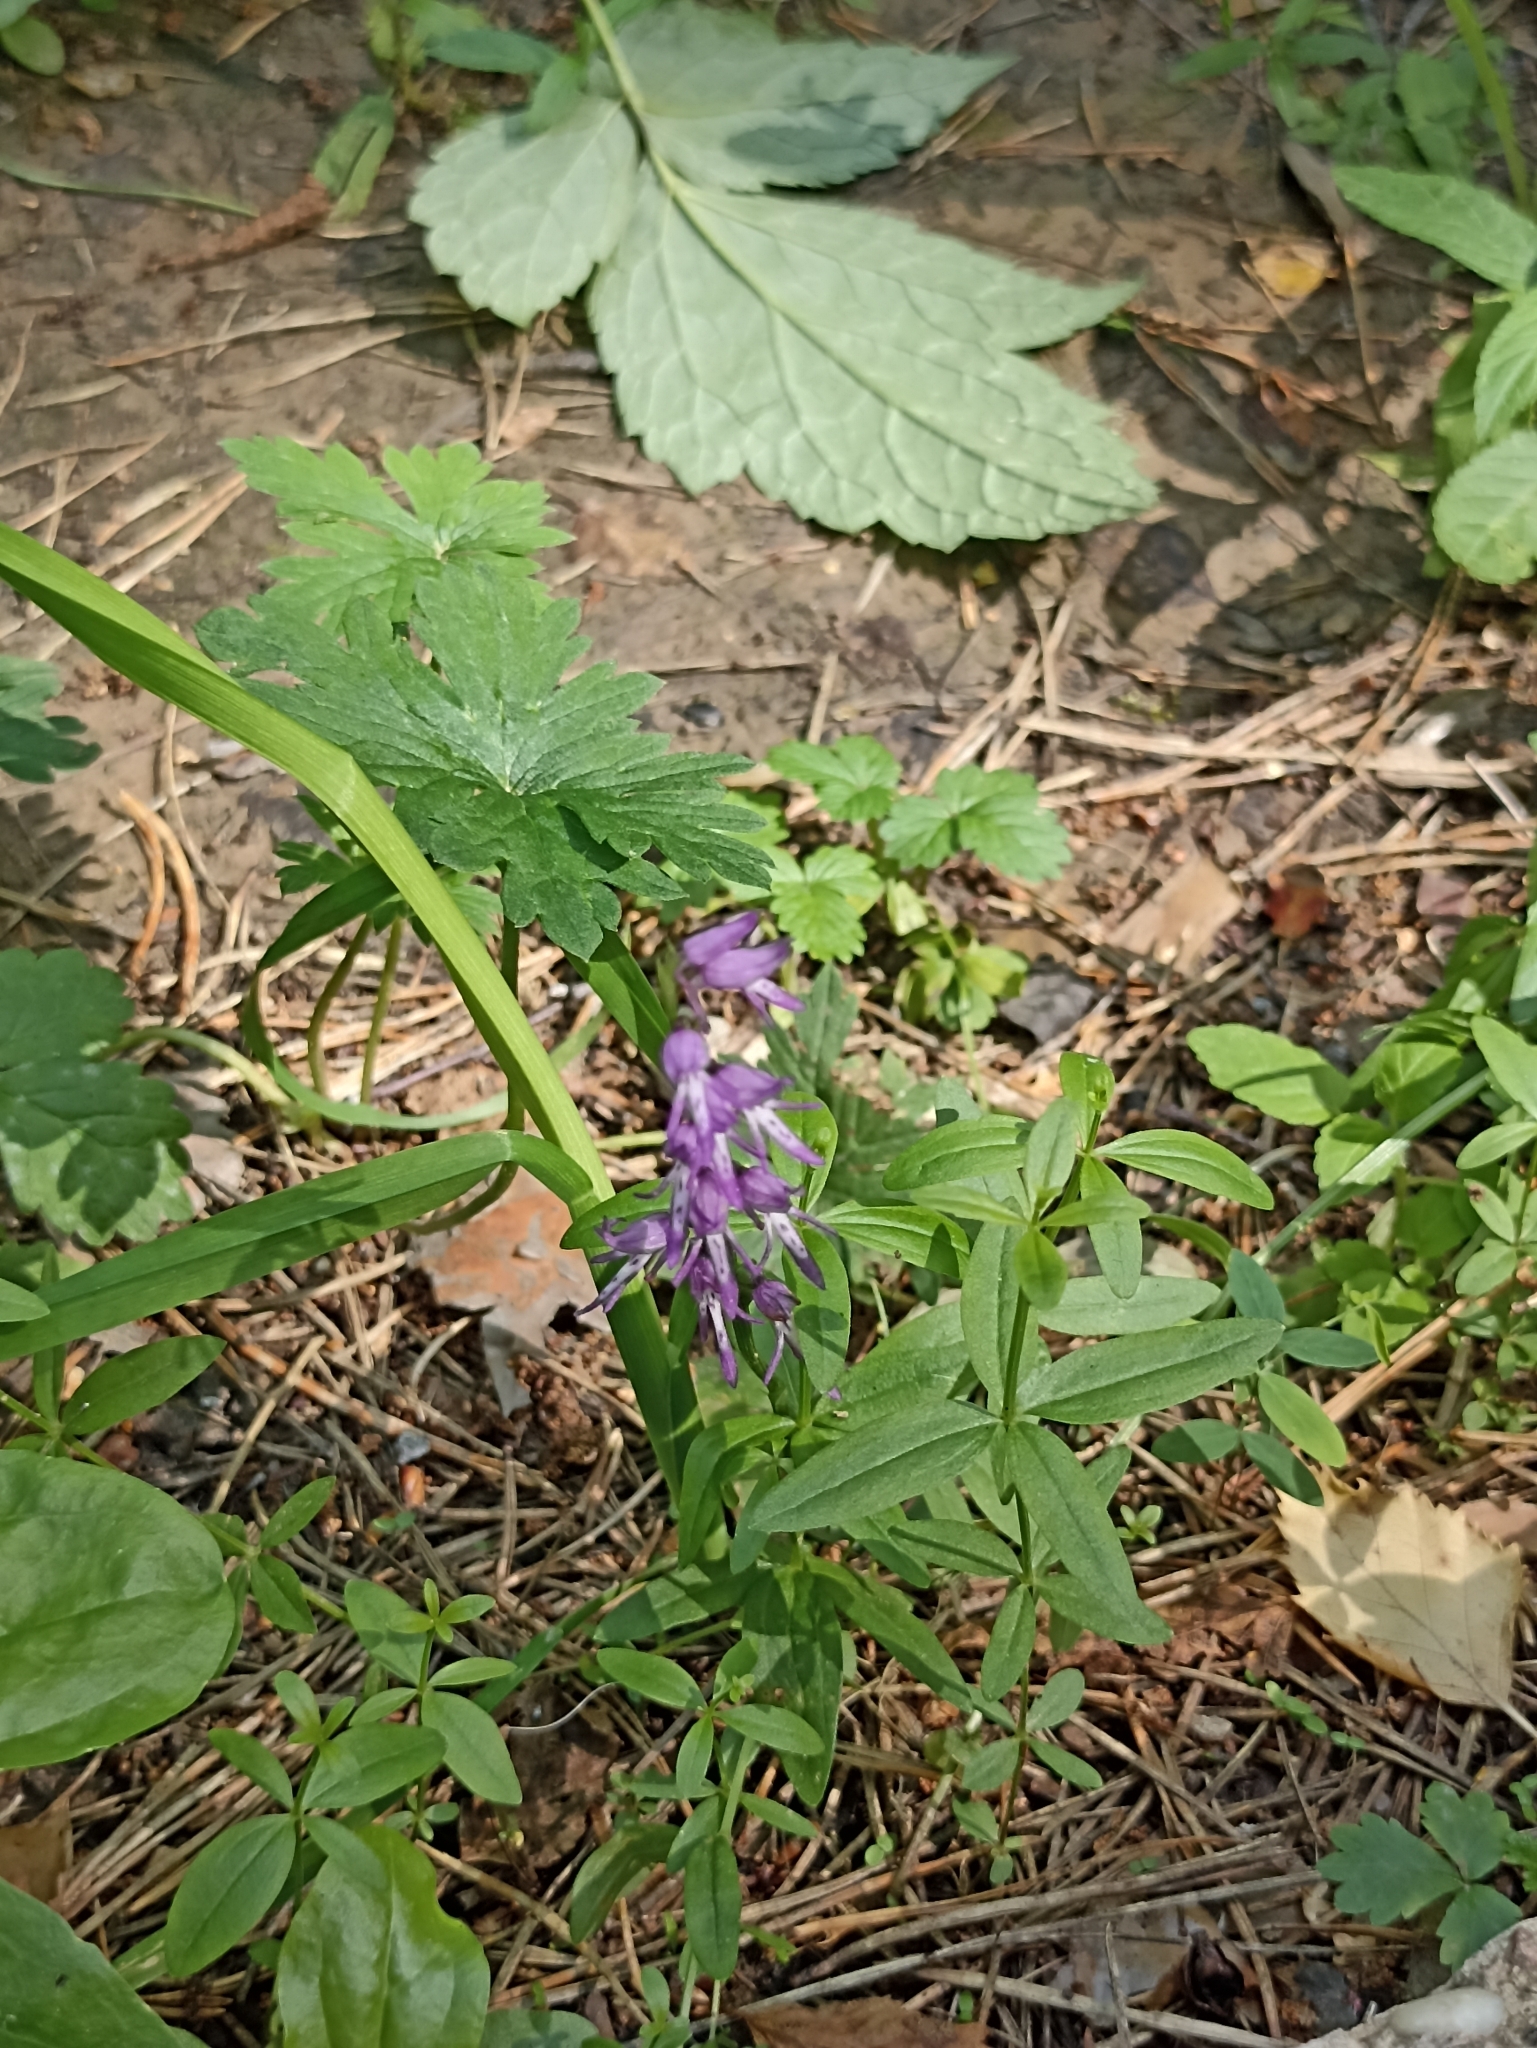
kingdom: Plantae
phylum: Tracheophyta
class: Liliopsida
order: Asparagales
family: Orchidaceae
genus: Hemipilia
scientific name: Hemipilia cucullata
